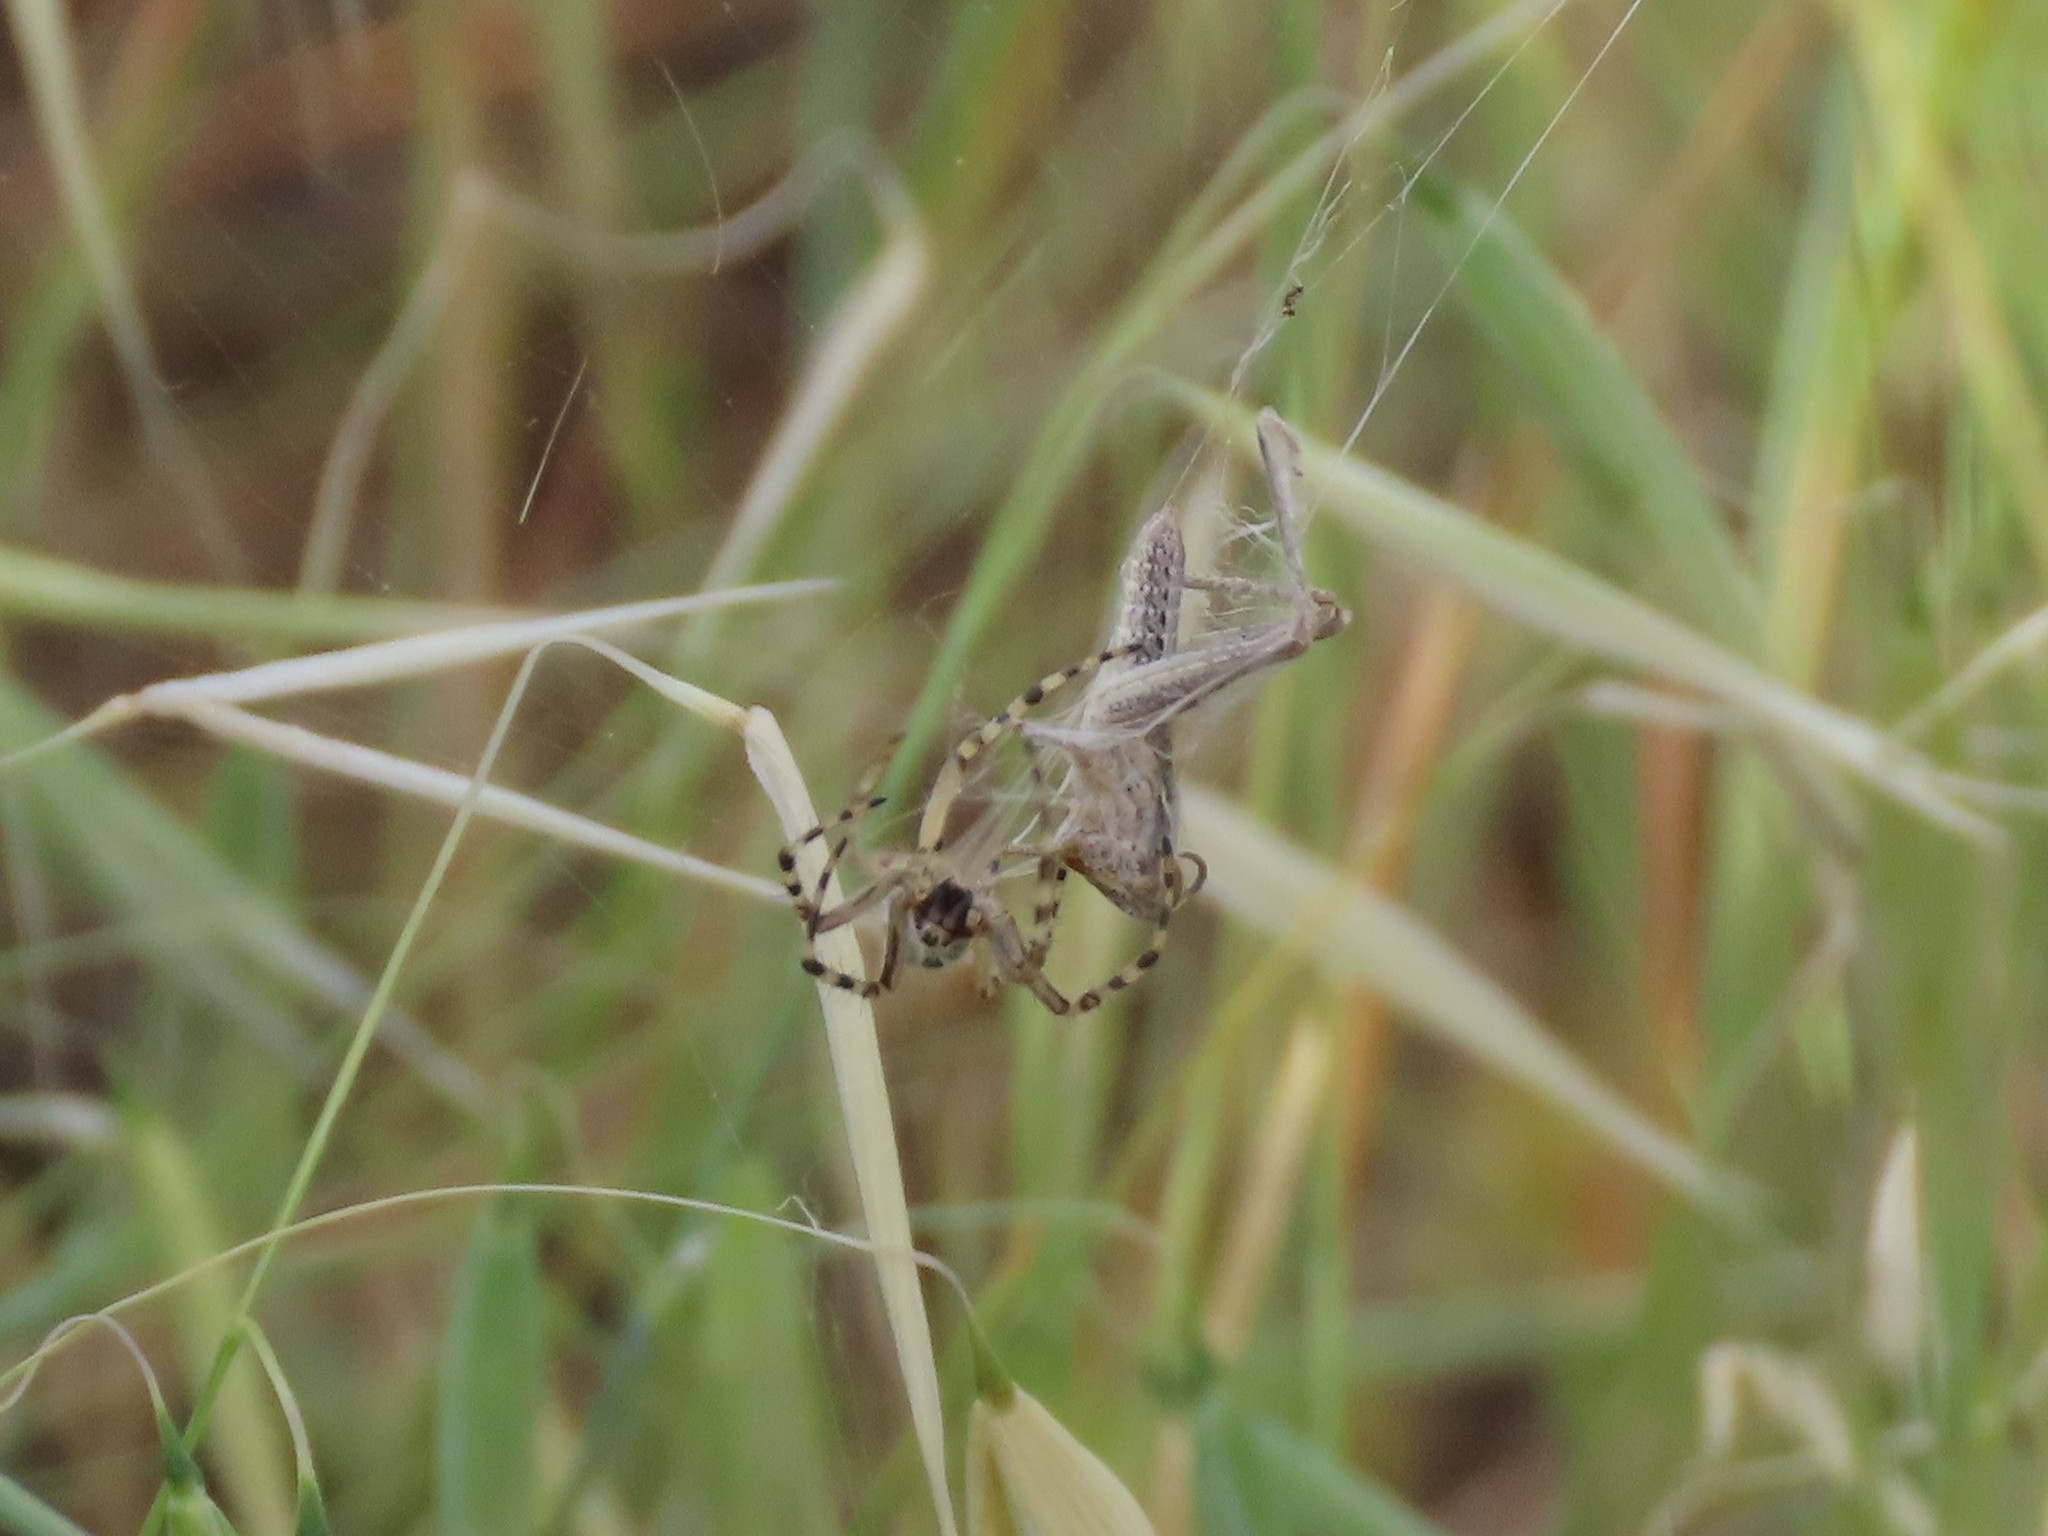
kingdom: Animalia
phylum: Arthropoda
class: Arachnida
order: Araneae
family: Araneidae
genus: Aculepeira
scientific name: Aculepeira armida
